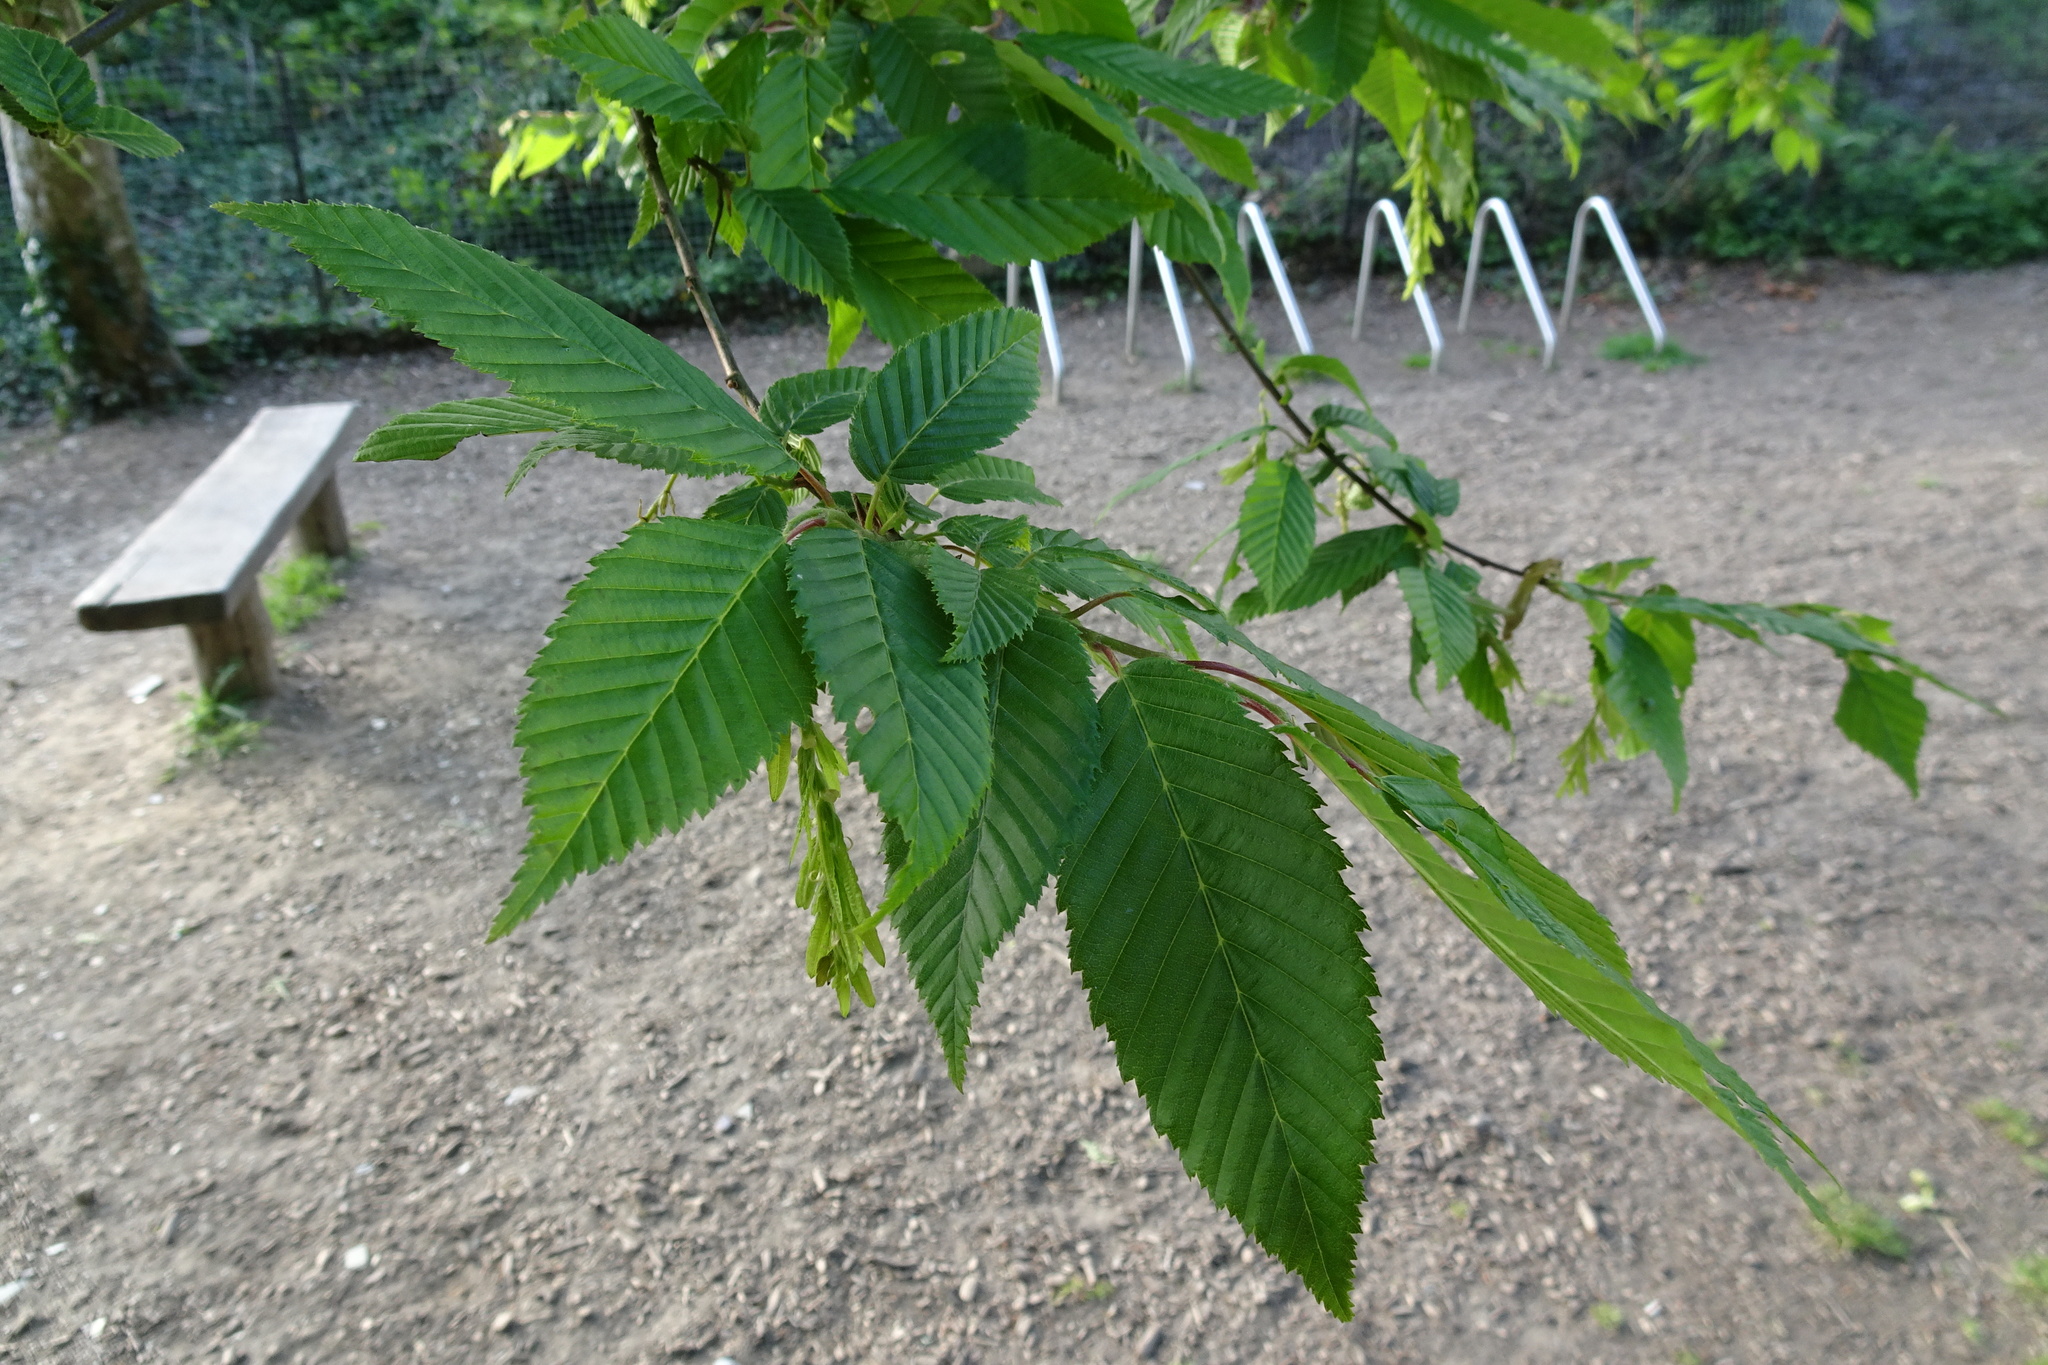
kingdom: Plantae
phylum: Tracheophyta
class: Magnoliopsida
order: Fagales
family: Betulaceae
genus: Carpinus
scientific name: Carpinus betulus
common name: Hornbeam
